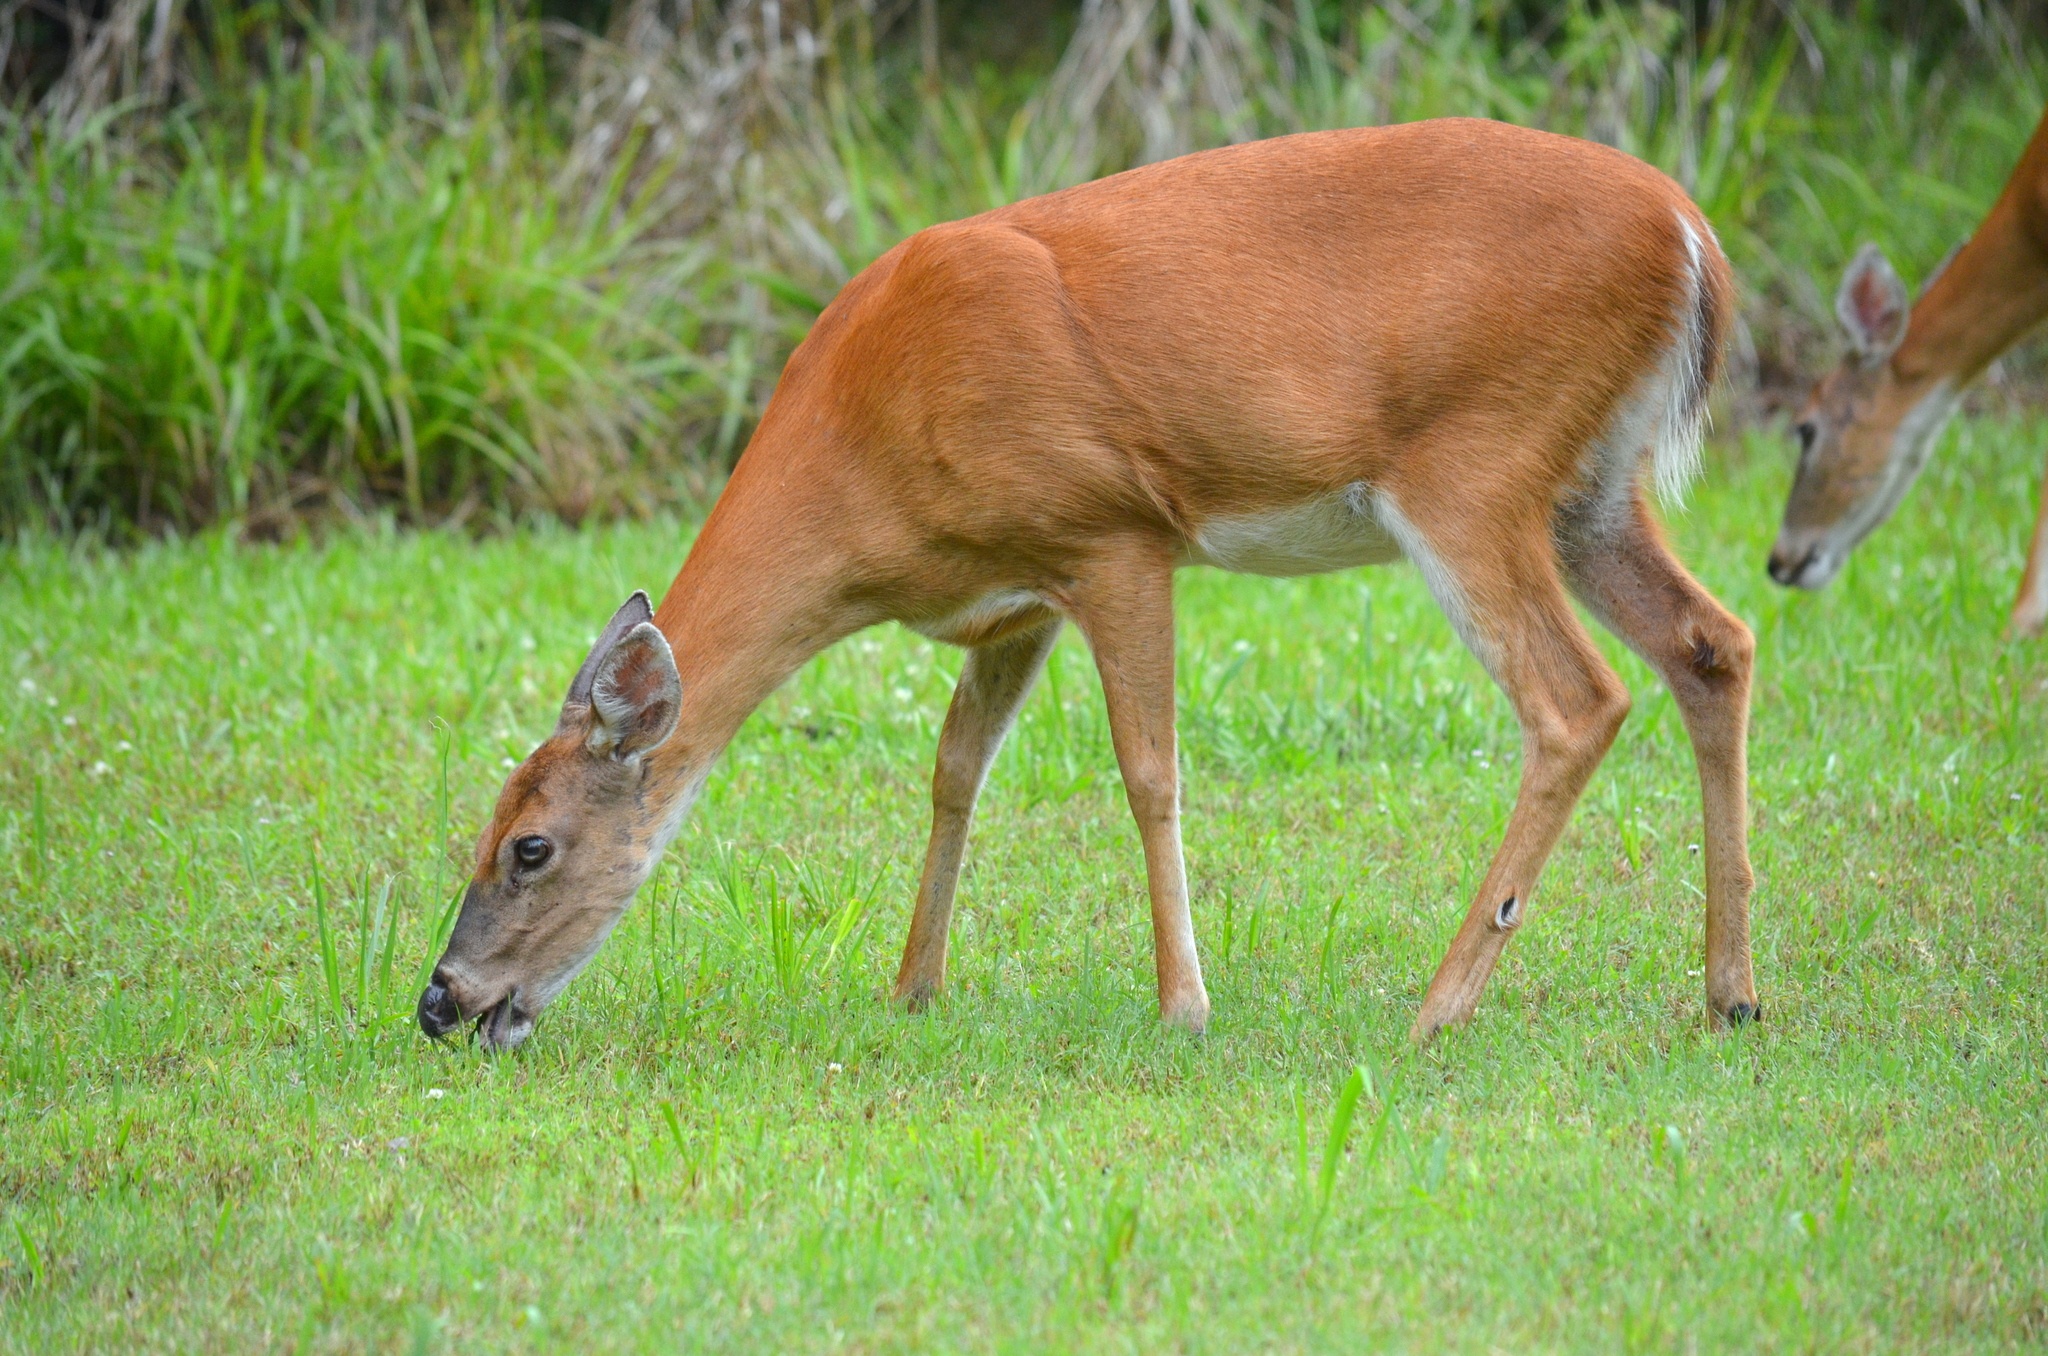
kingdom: Animalia
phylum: Chordata
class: Mammalia
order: Artiodactyla
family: Cervidae
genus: Odocoileus
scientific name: Odocoileus virginianus
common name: White-tailed deer
